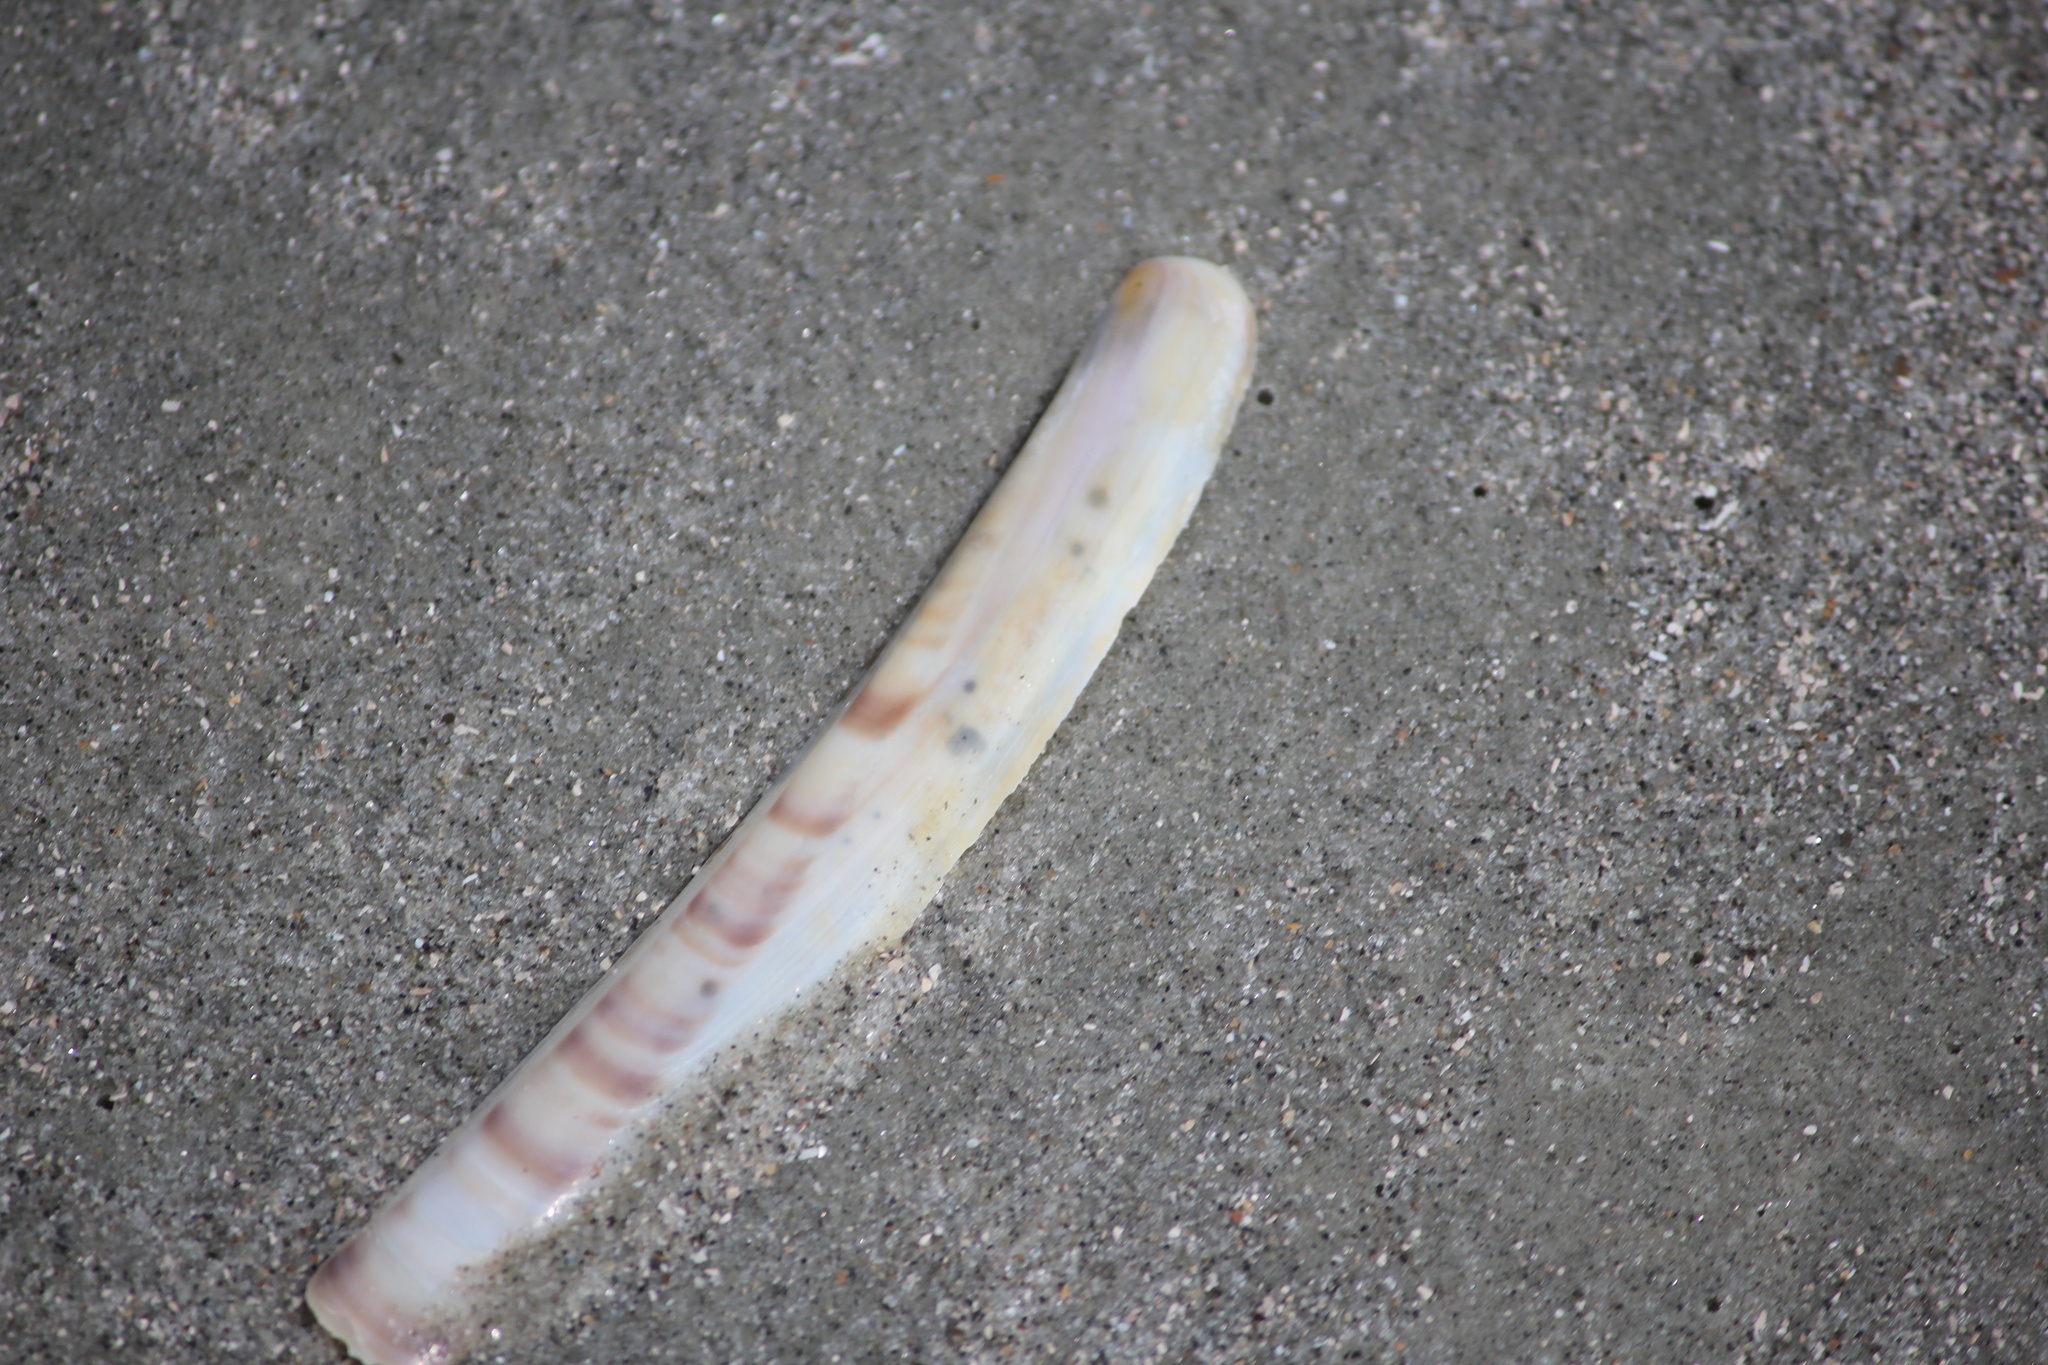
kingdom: Animalia
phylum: Mollusca
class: Bivalvia
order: Adapedonta
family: Pharidae
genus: Ensis
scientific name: Ensis leei
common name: American jack knife clam
